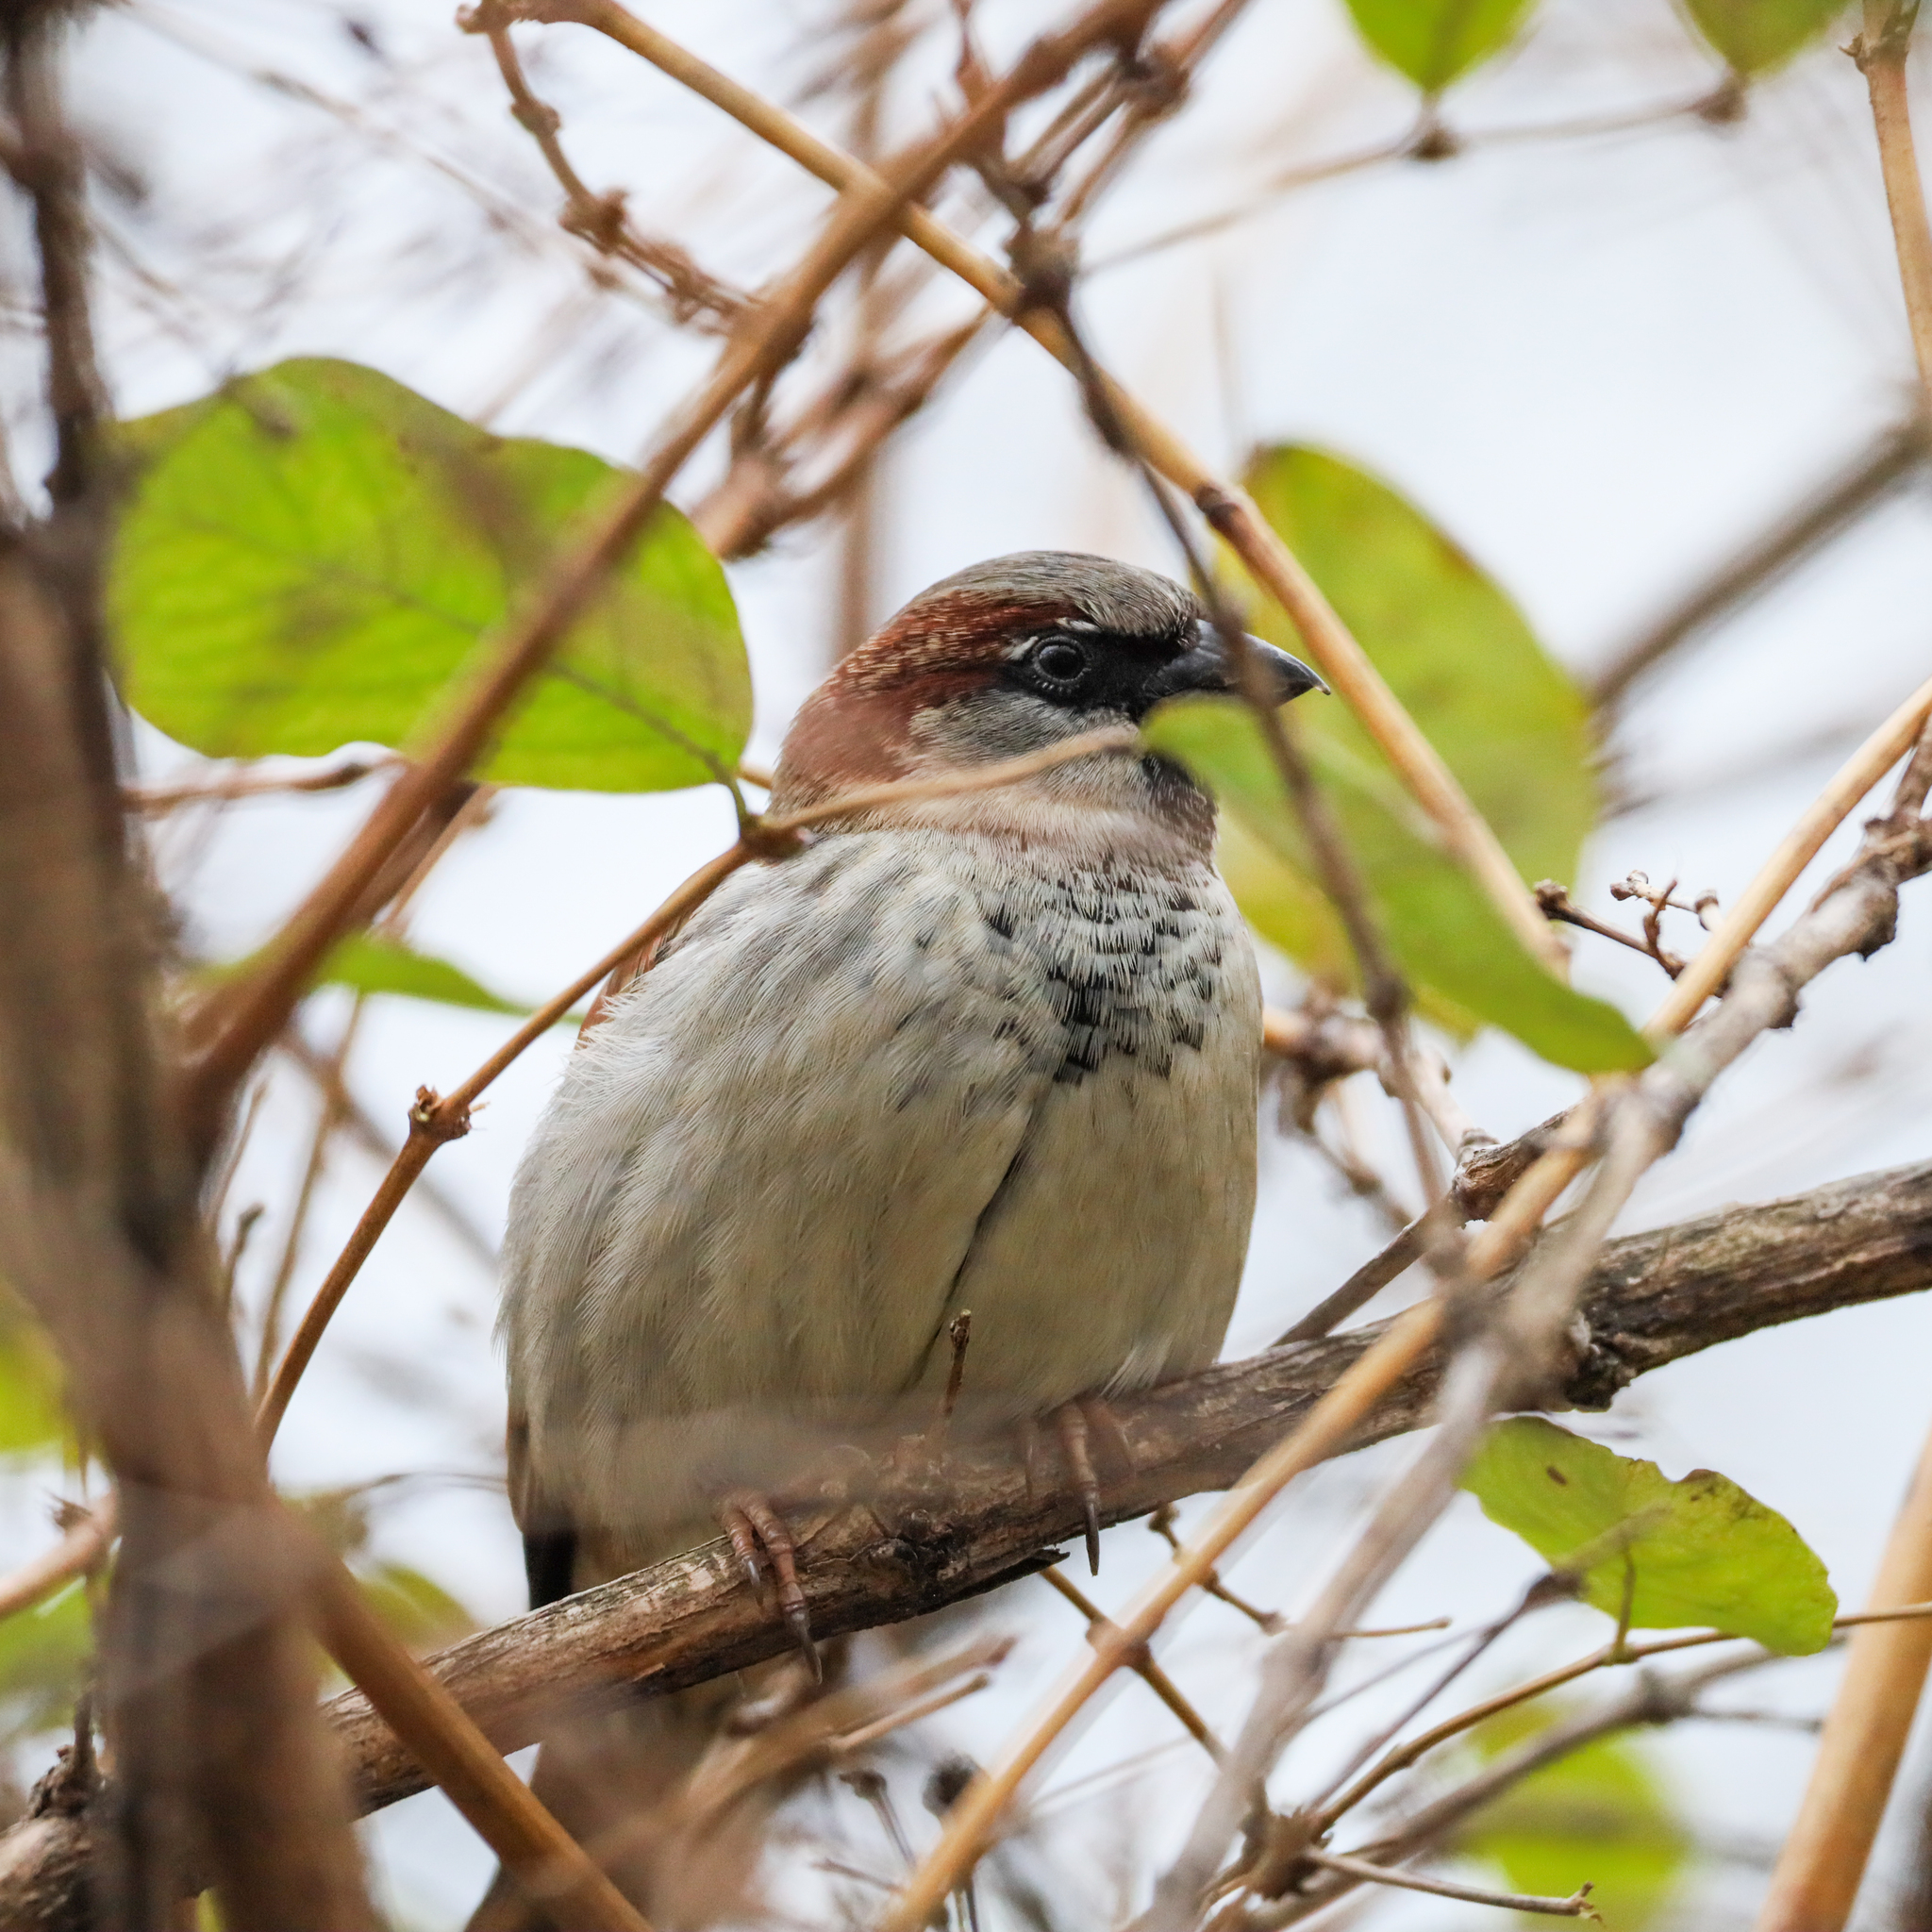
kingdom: Animalia
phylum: Chordata
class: Aves
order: Passeriformes
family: Passeridae
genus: Passer
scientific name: Passer domesticus
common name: House sparrow
